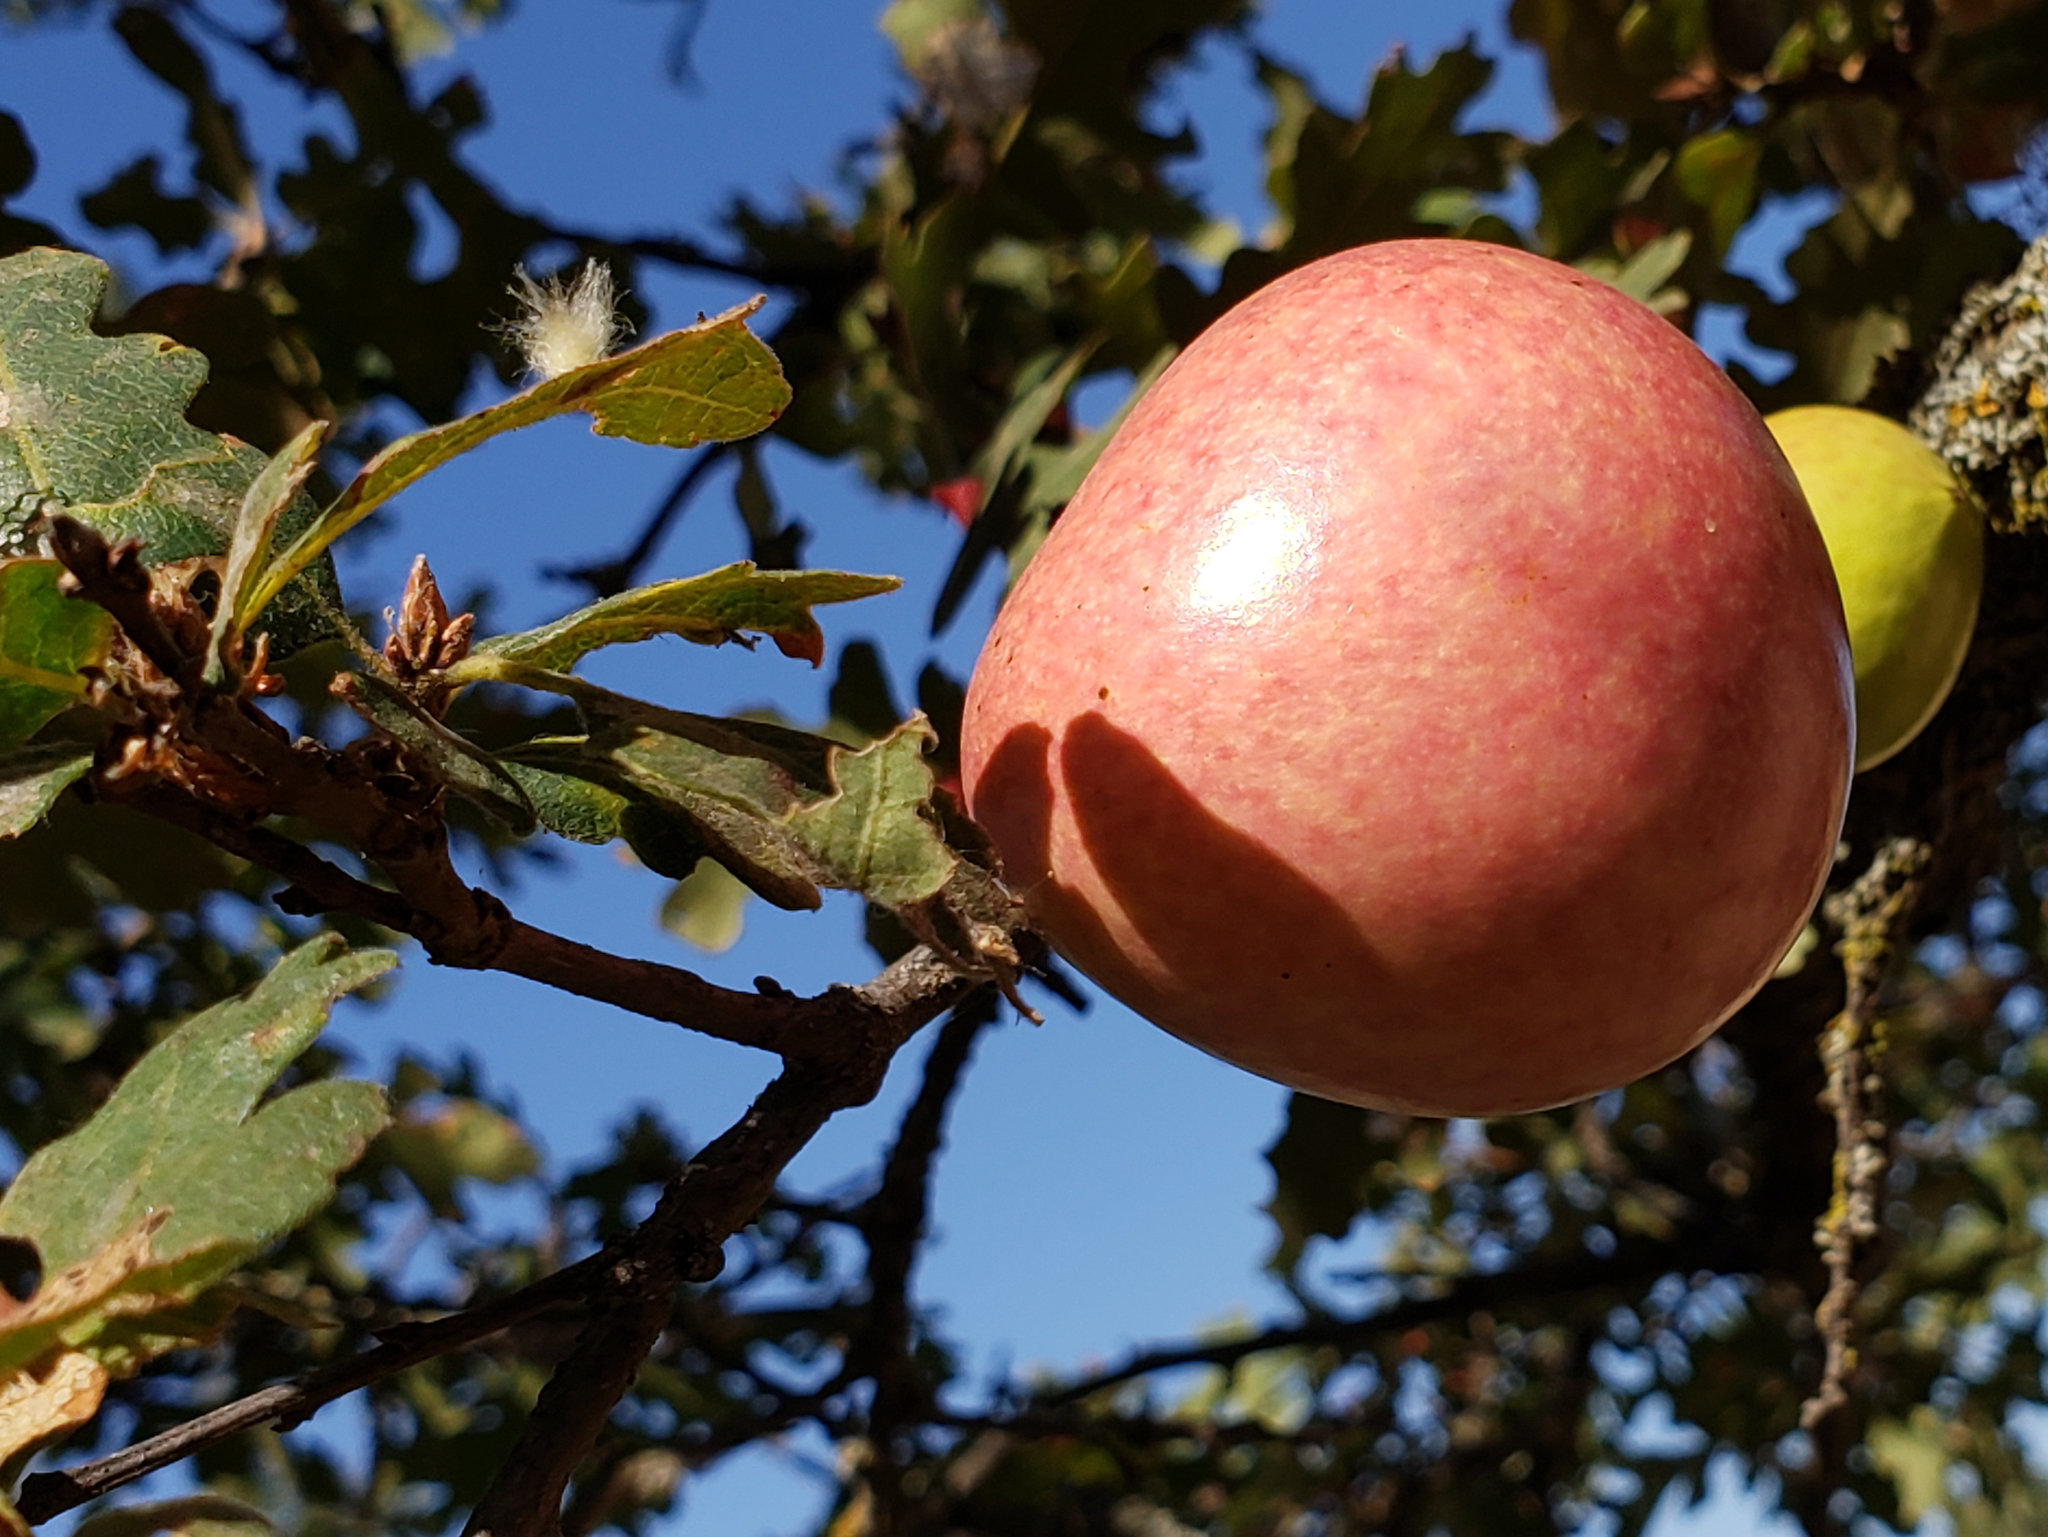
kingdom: Animalia
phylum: Arthropoda
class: Insecta
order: Hymenoptera
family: Cynipidae
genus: Andricus
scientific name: Andricus quercuscalifornicus
